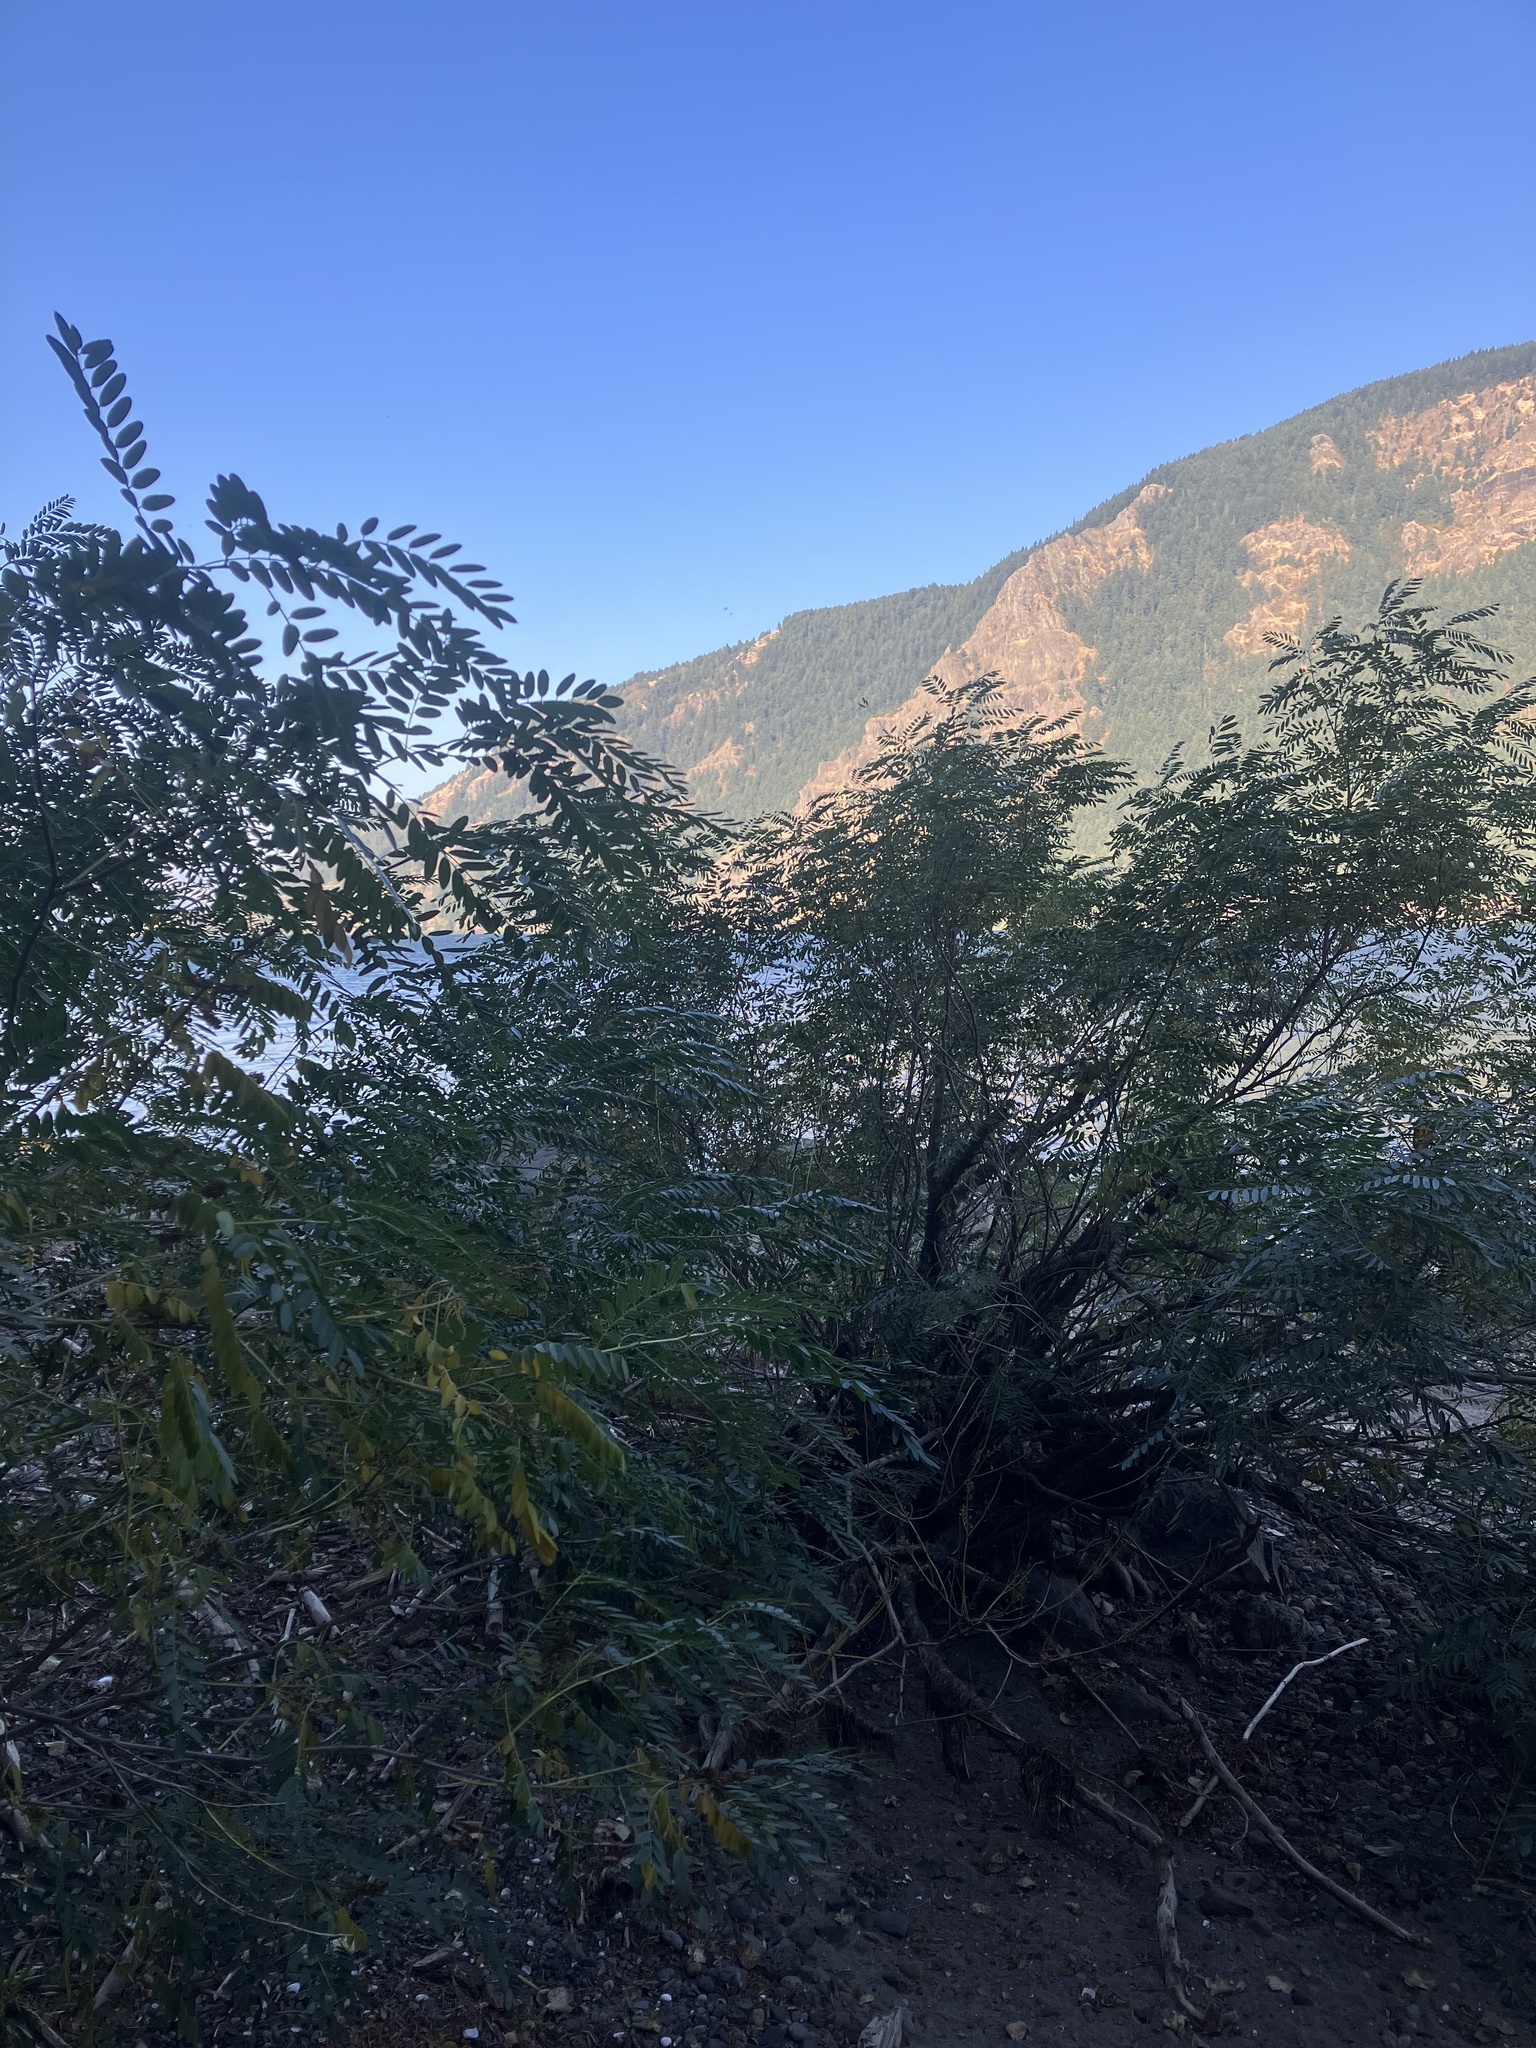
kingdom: Plantae
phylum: Tracheophyta
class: Magnoliopsida
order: Fabales
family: Fabaceae
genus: Amorpha
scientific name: Amorpha fruticosa
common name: False indigo
